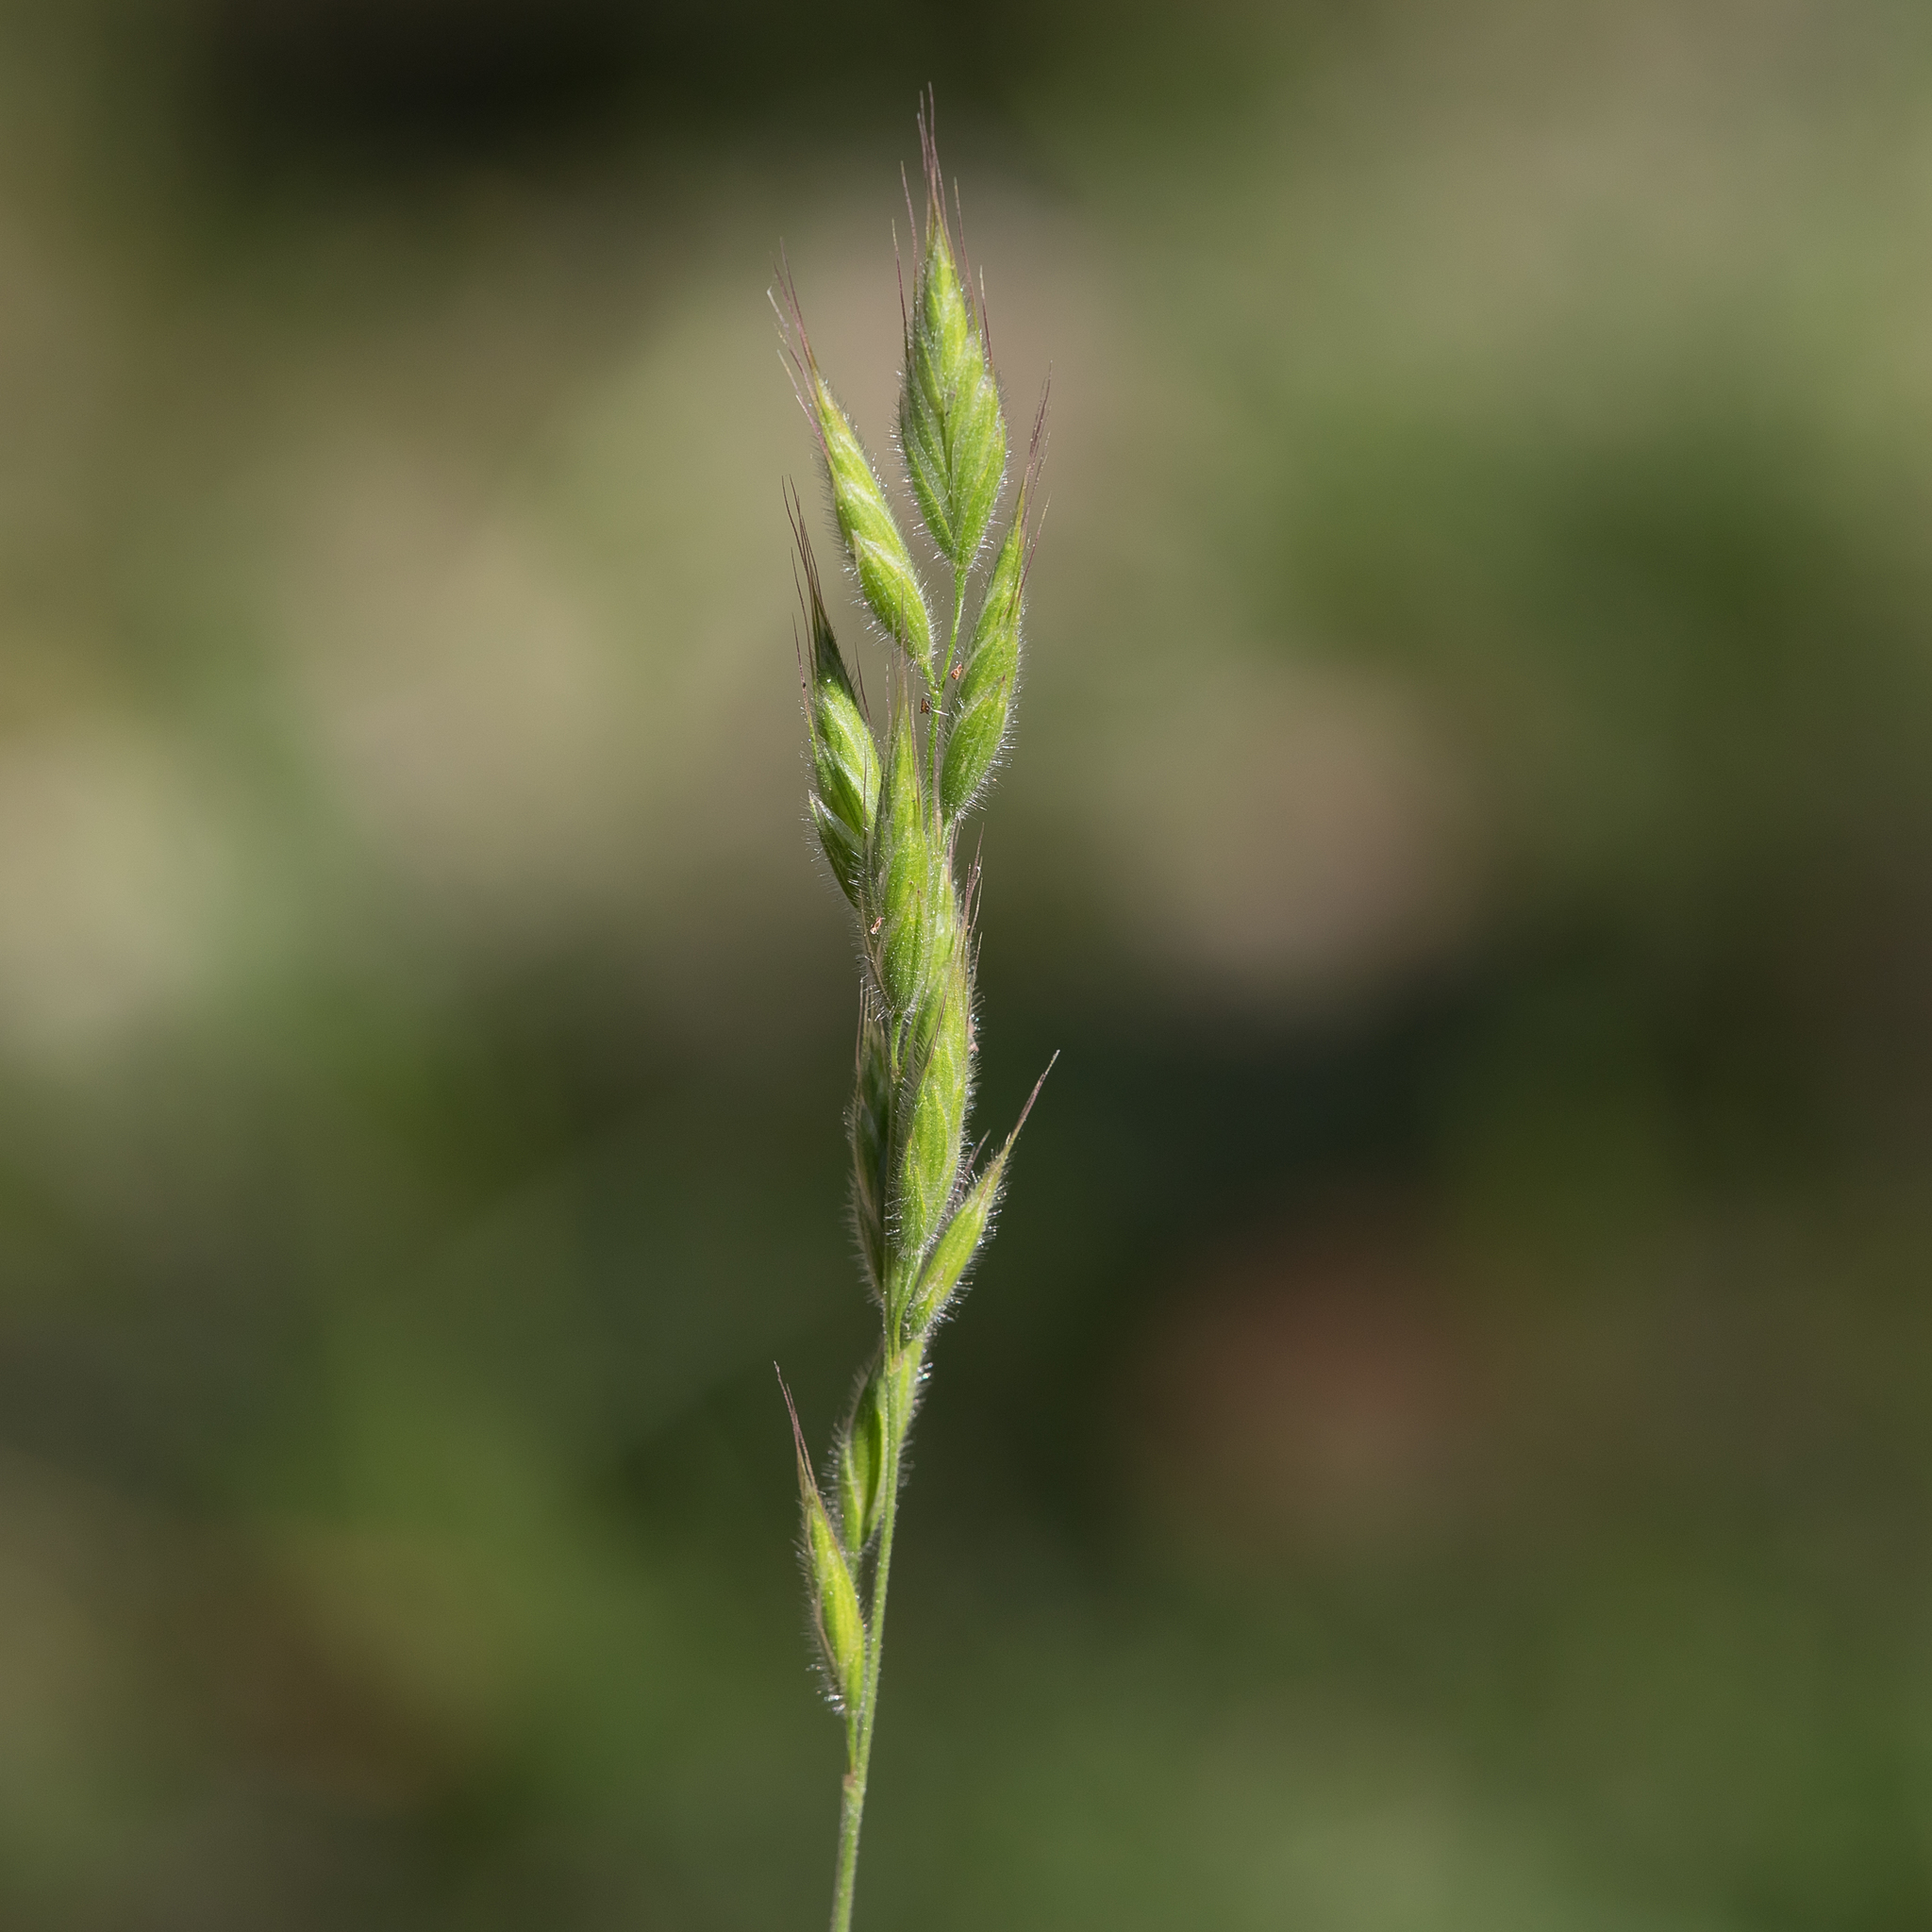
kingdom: Plantae
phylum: Tracheophyta
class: Liliopsida
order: Poales
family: Poaceae
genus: Bromus
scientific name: Bromus hordeaceus
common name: Soft brome
